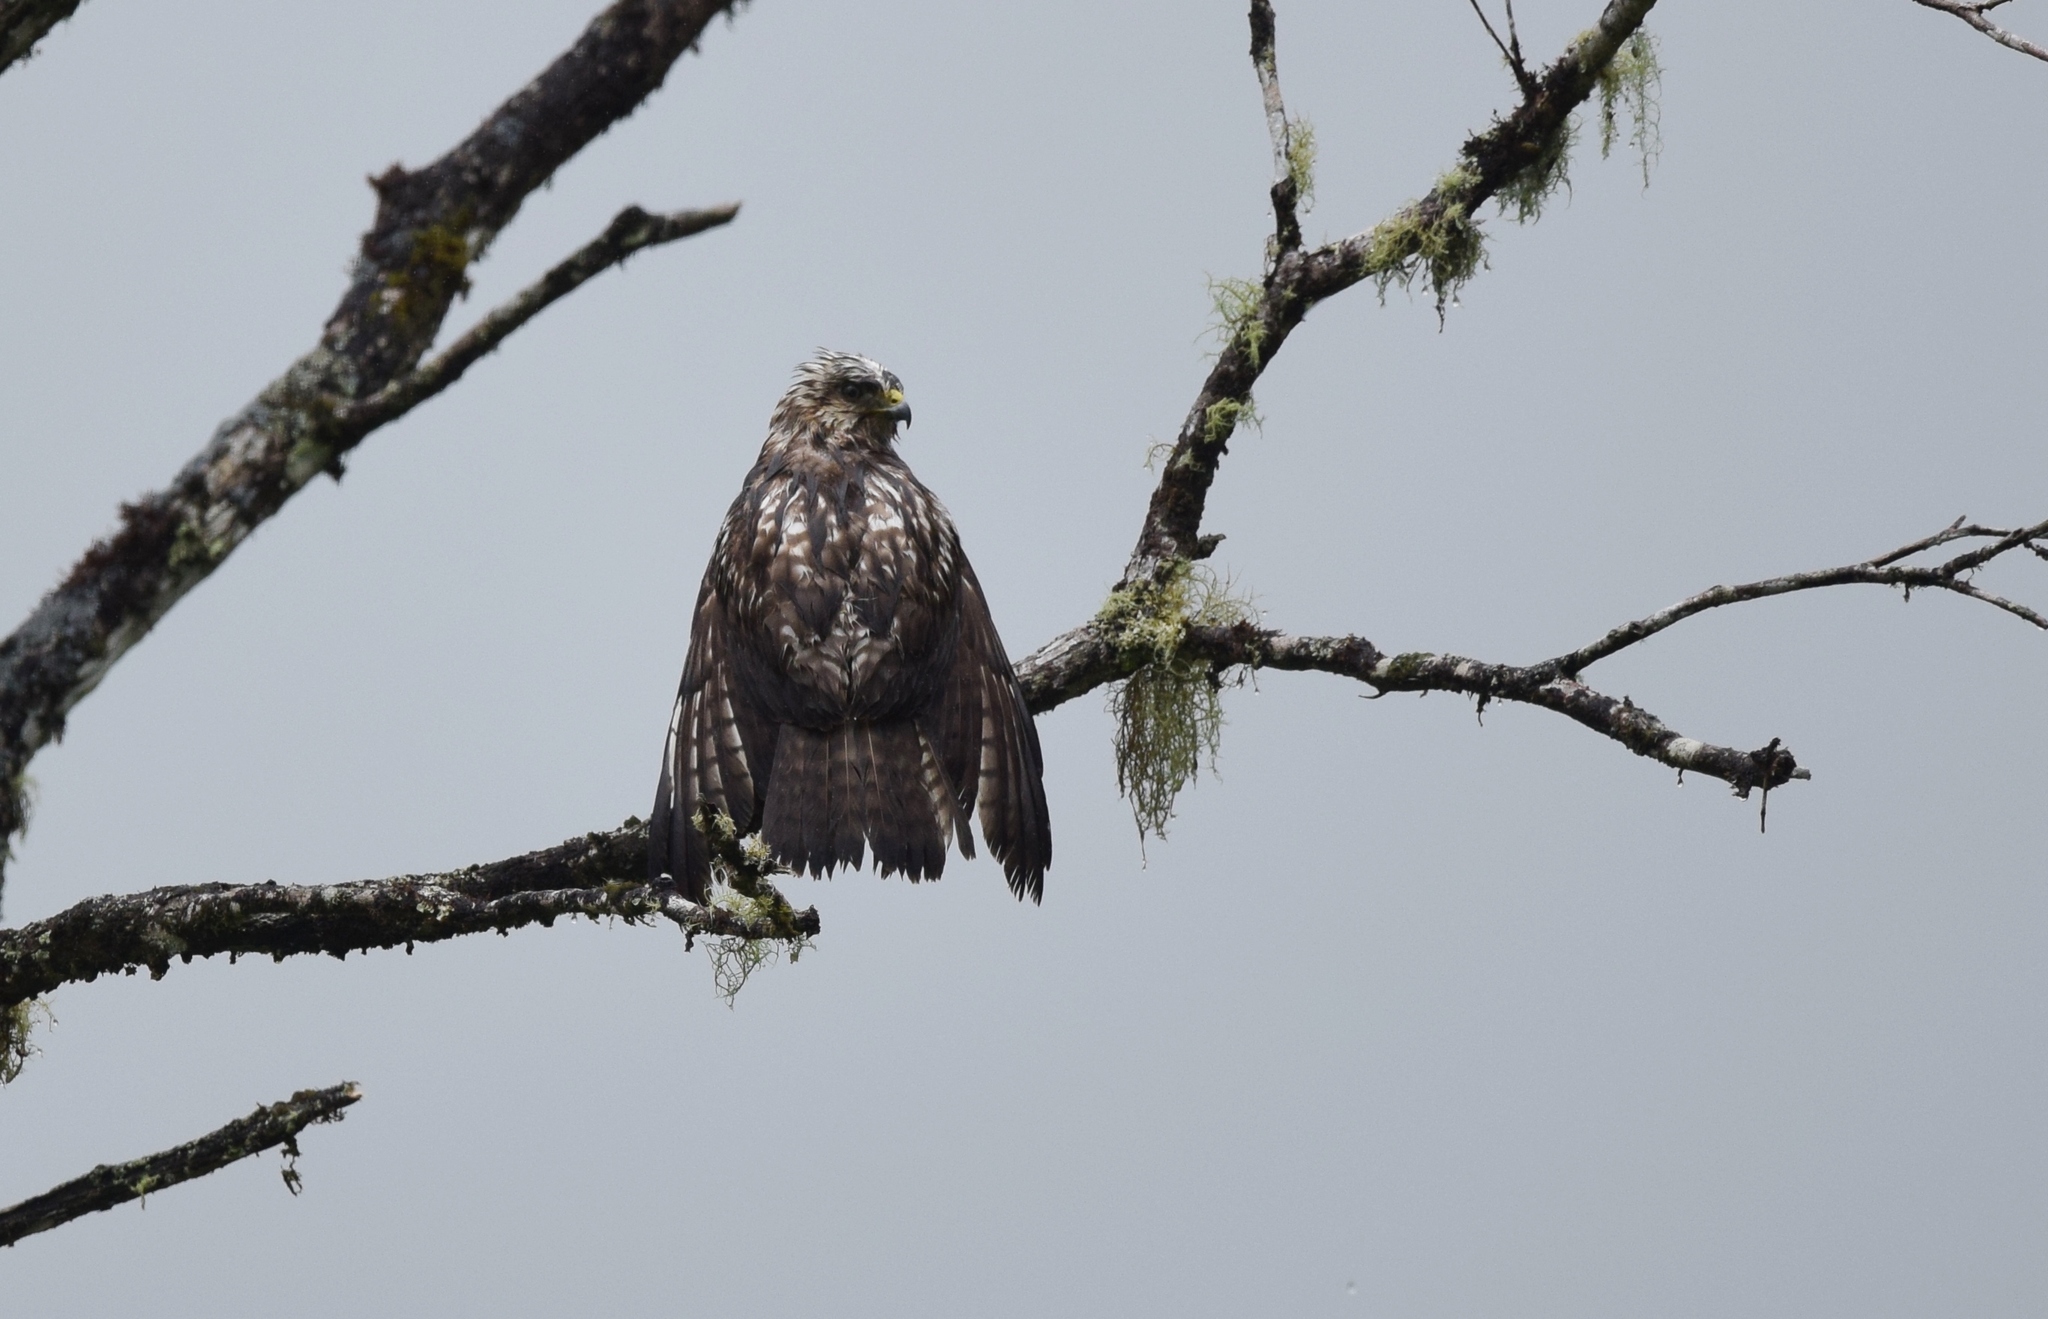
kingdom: Animalia
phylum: Chordata
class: Aves
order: Accipitriformes
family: Accipitridae
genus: Buteo
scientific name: Buteo platypterus
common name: Broad-winged hawk
